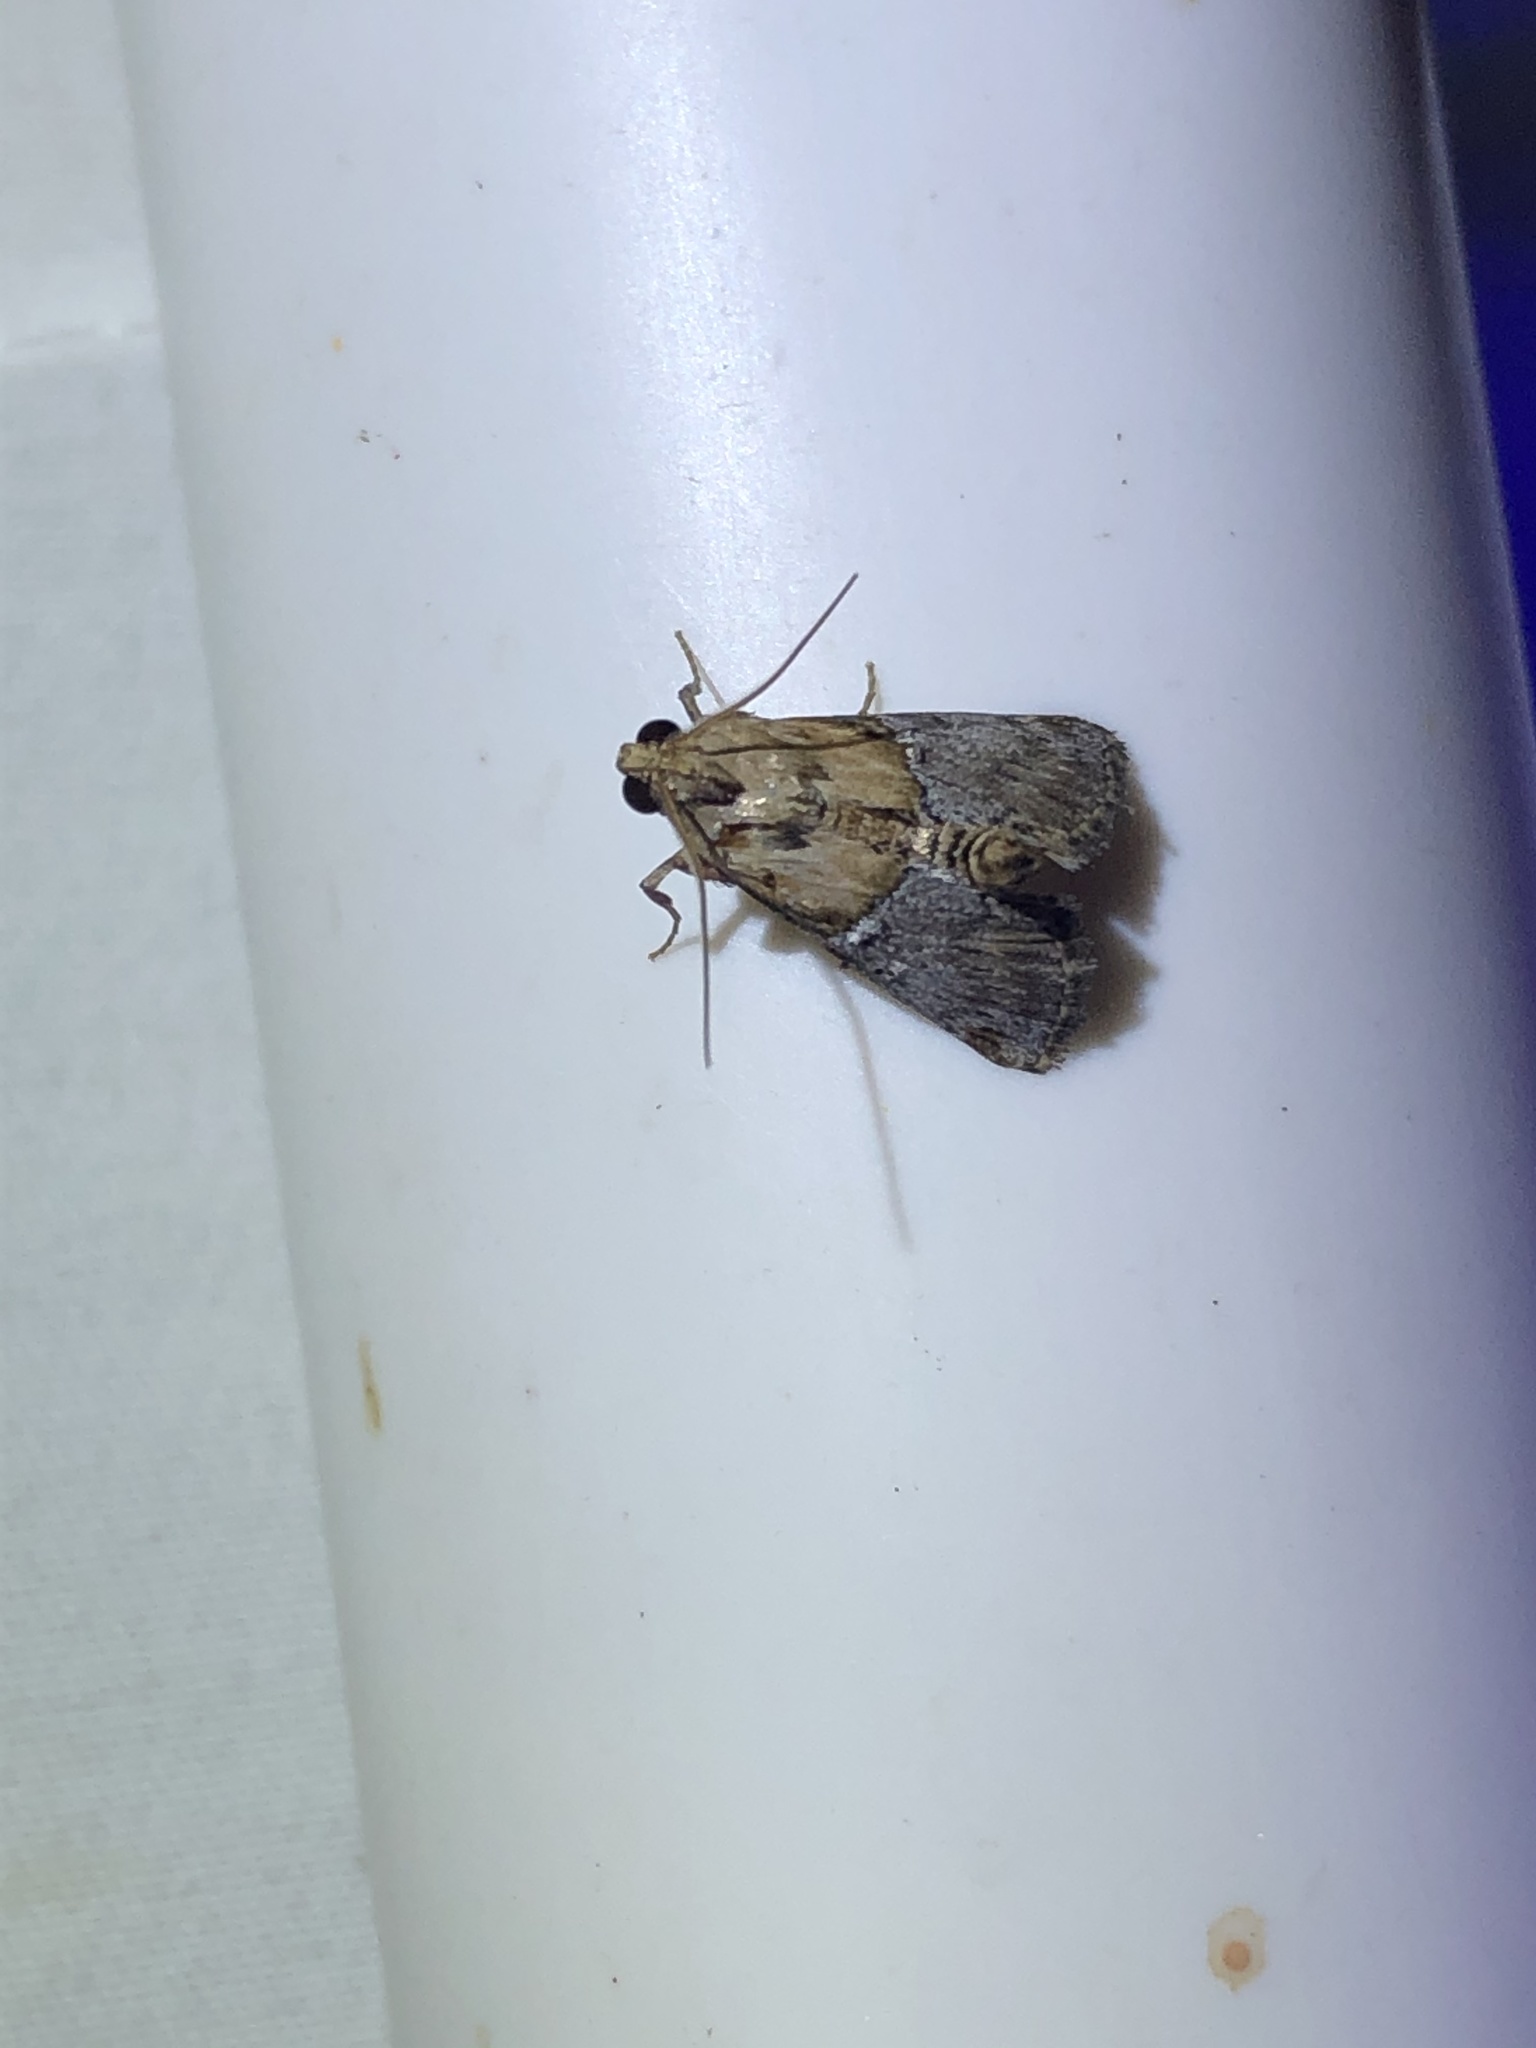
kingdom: Animalia
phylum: Arthropoda
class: Insecta
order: Lepidoptera
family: Pyralidae
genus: Cacozelia
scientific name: Cacozelia elegans
